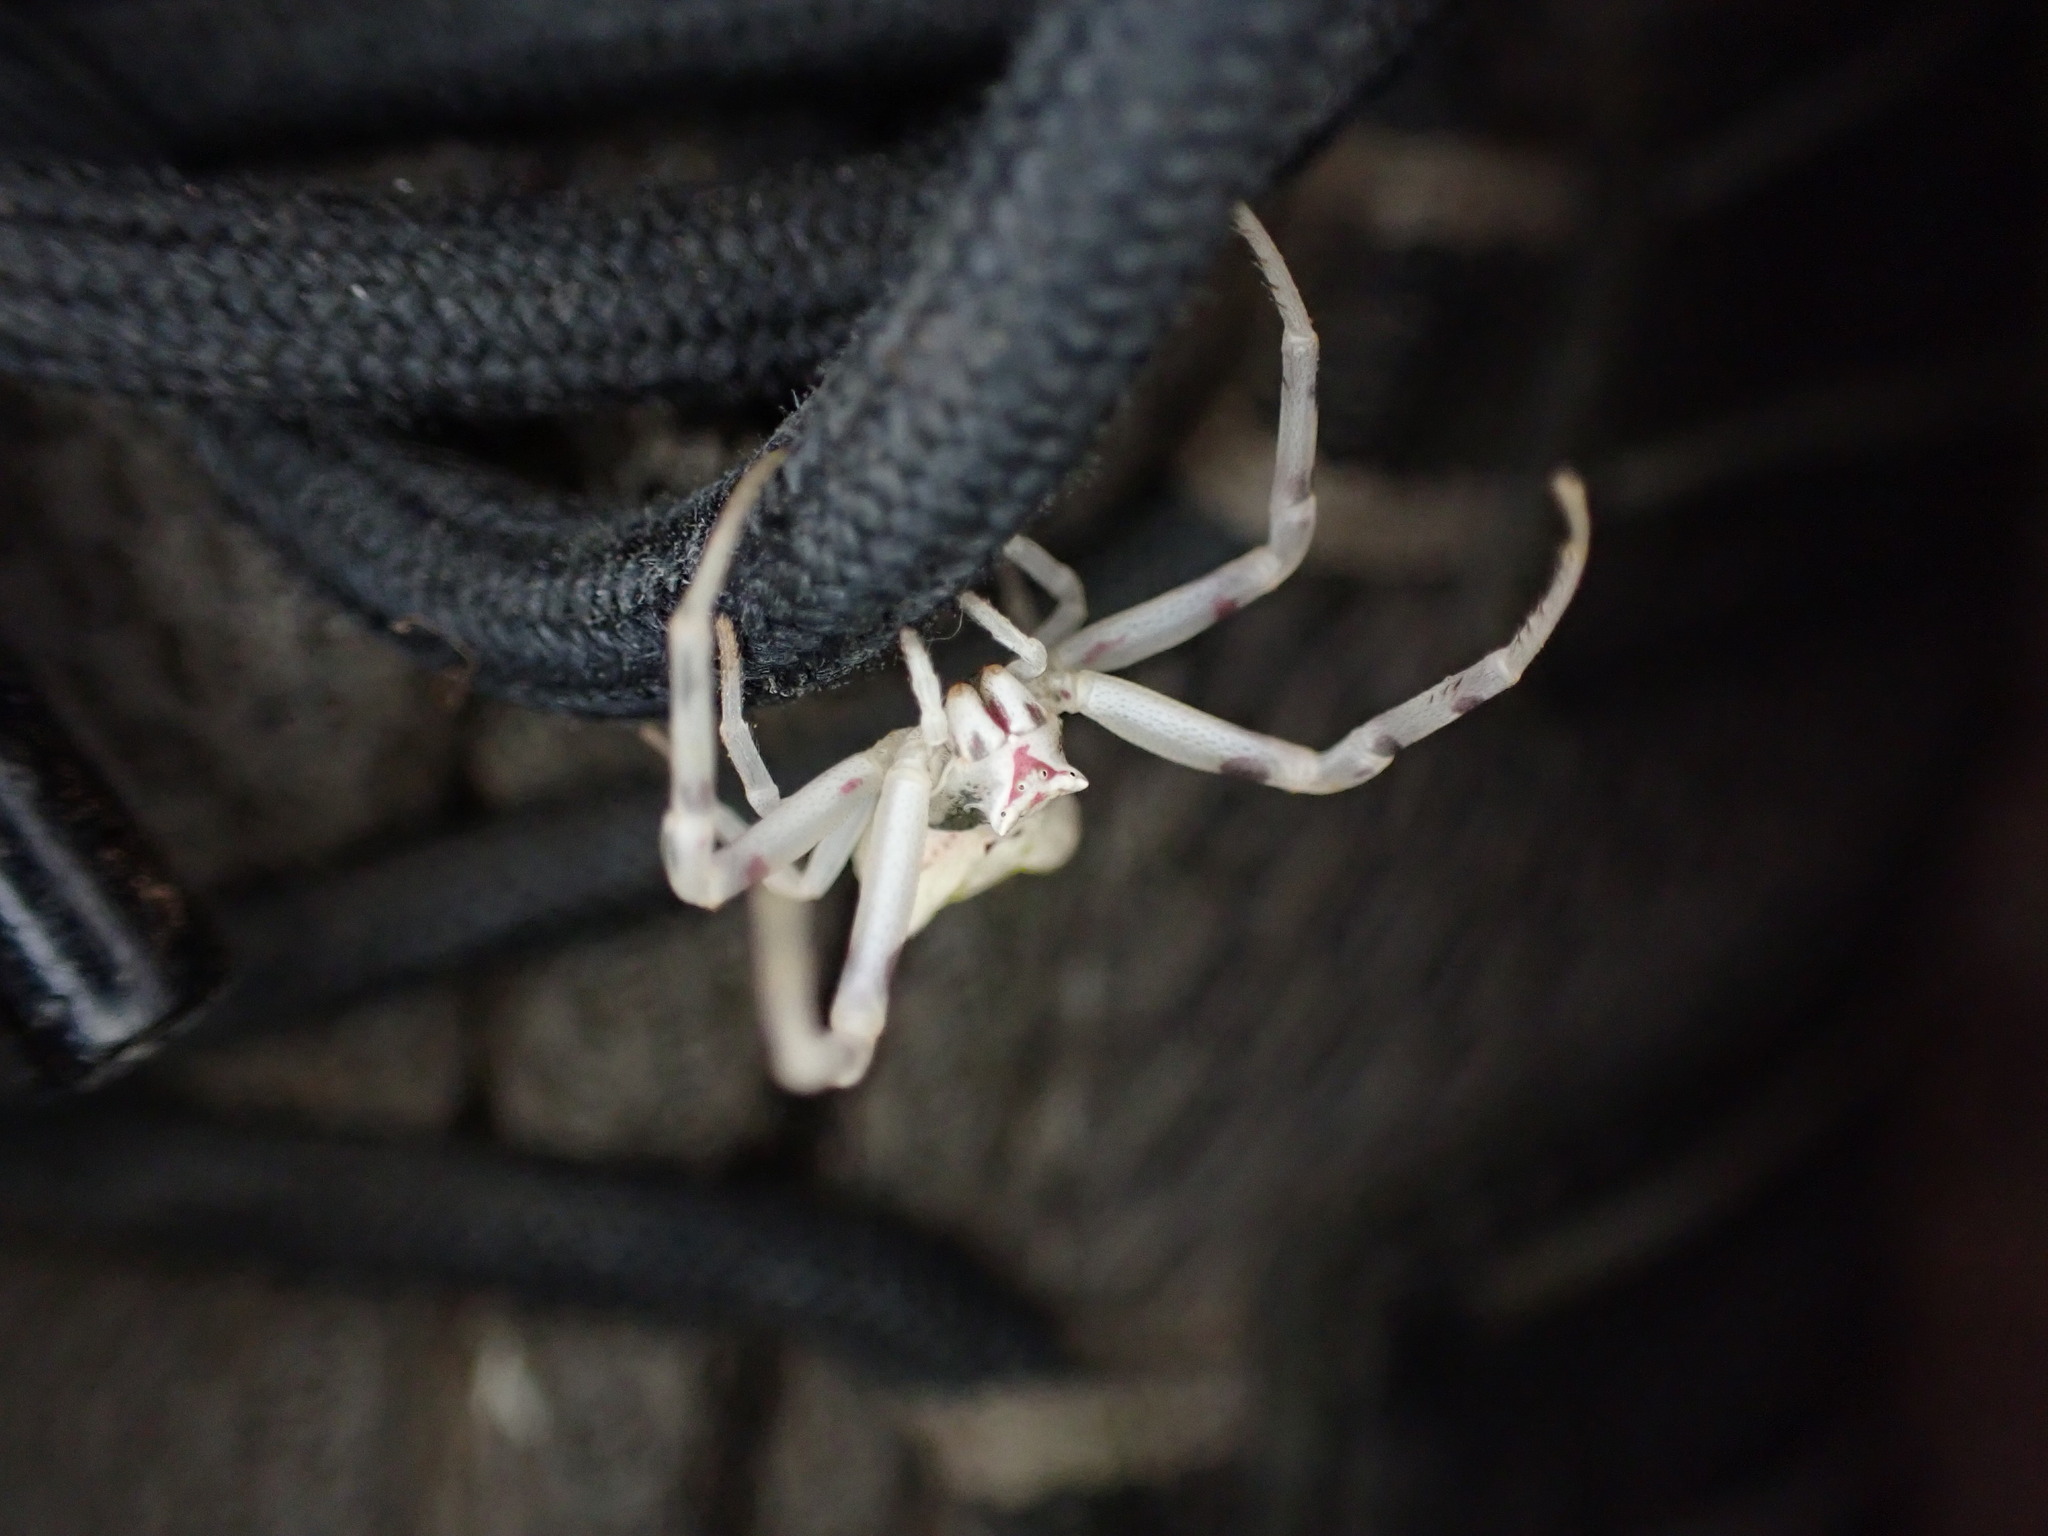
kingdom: Animalia
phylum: Arthropoda
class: Arachnida
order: Araneae
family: Thomisidae
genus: Thomisus
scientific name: Thomisus onustus
